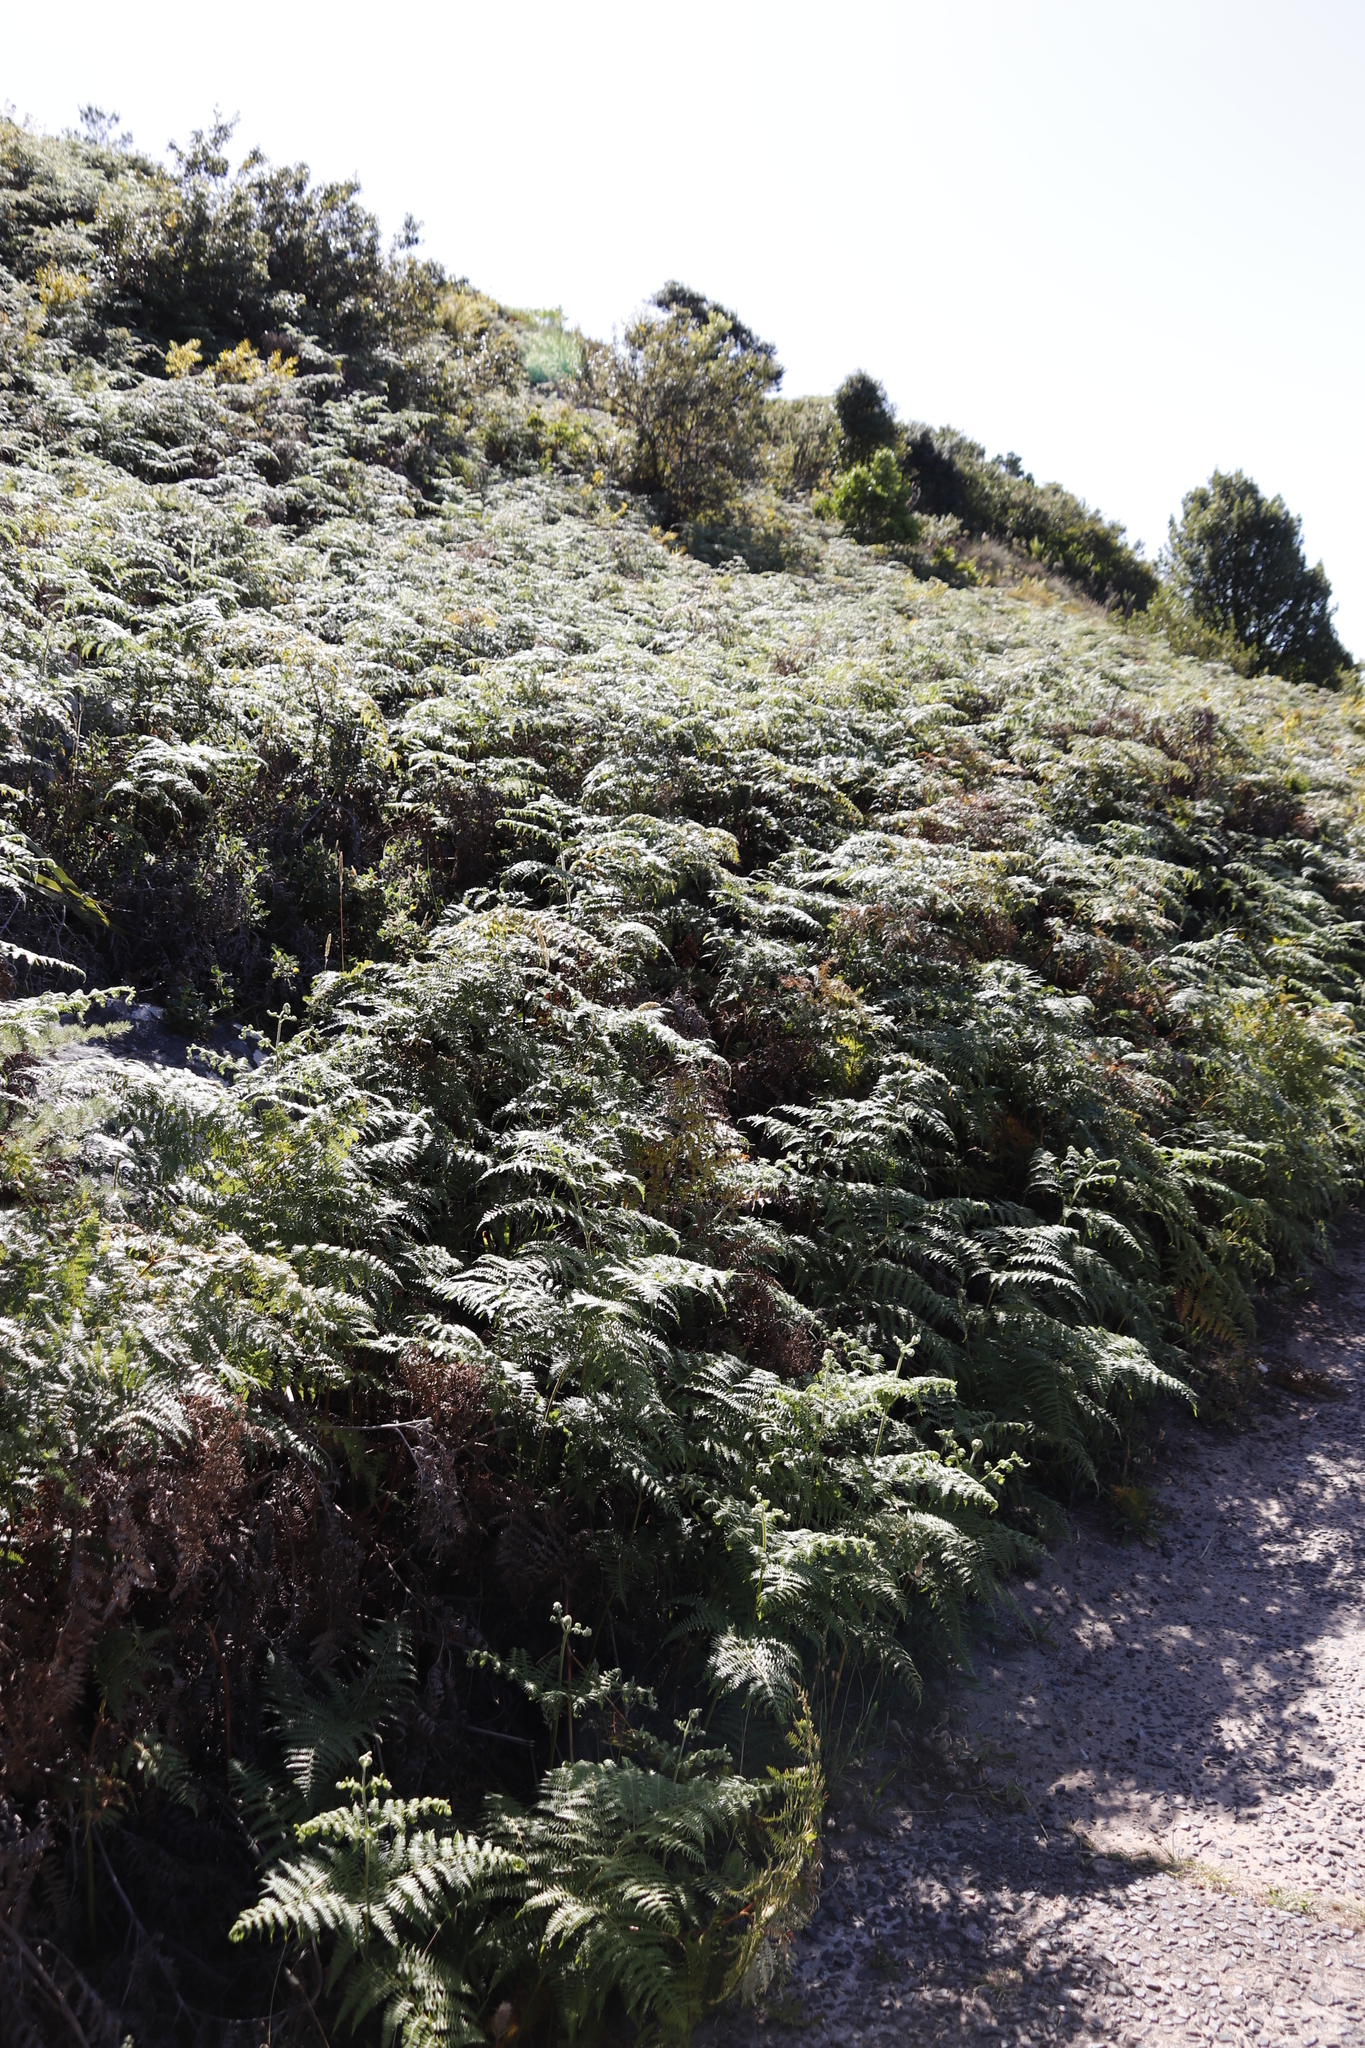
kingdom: Plantae
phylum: Tracheophyta
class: Polypodiopsida
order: Polypodiales
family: Dennstaedtiaceae
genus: Pteridium
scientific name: Pteridium aquilinum
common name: Bracken
